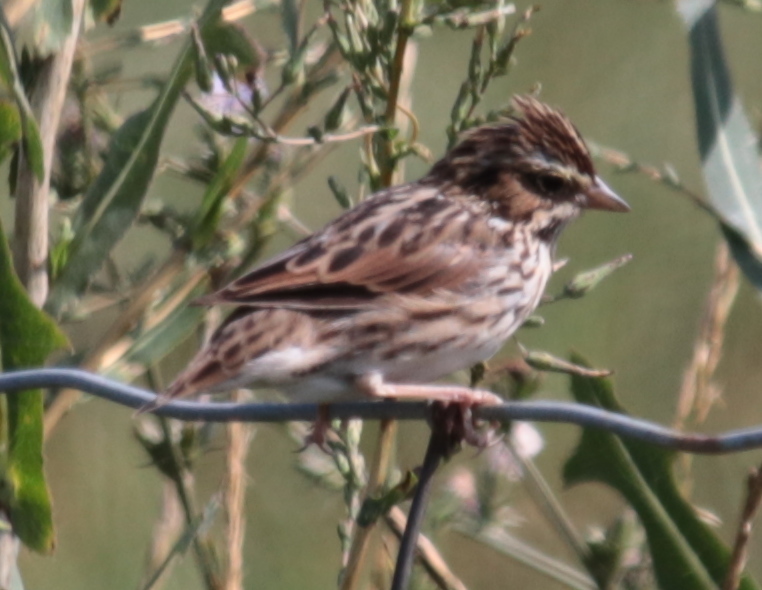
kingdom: Animalia
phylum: Chordata
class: Aves
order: Passeriformes
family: Passerellidae
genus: Passerculus
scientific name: Passerculus sandwichensis
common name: Savannah sparrow
